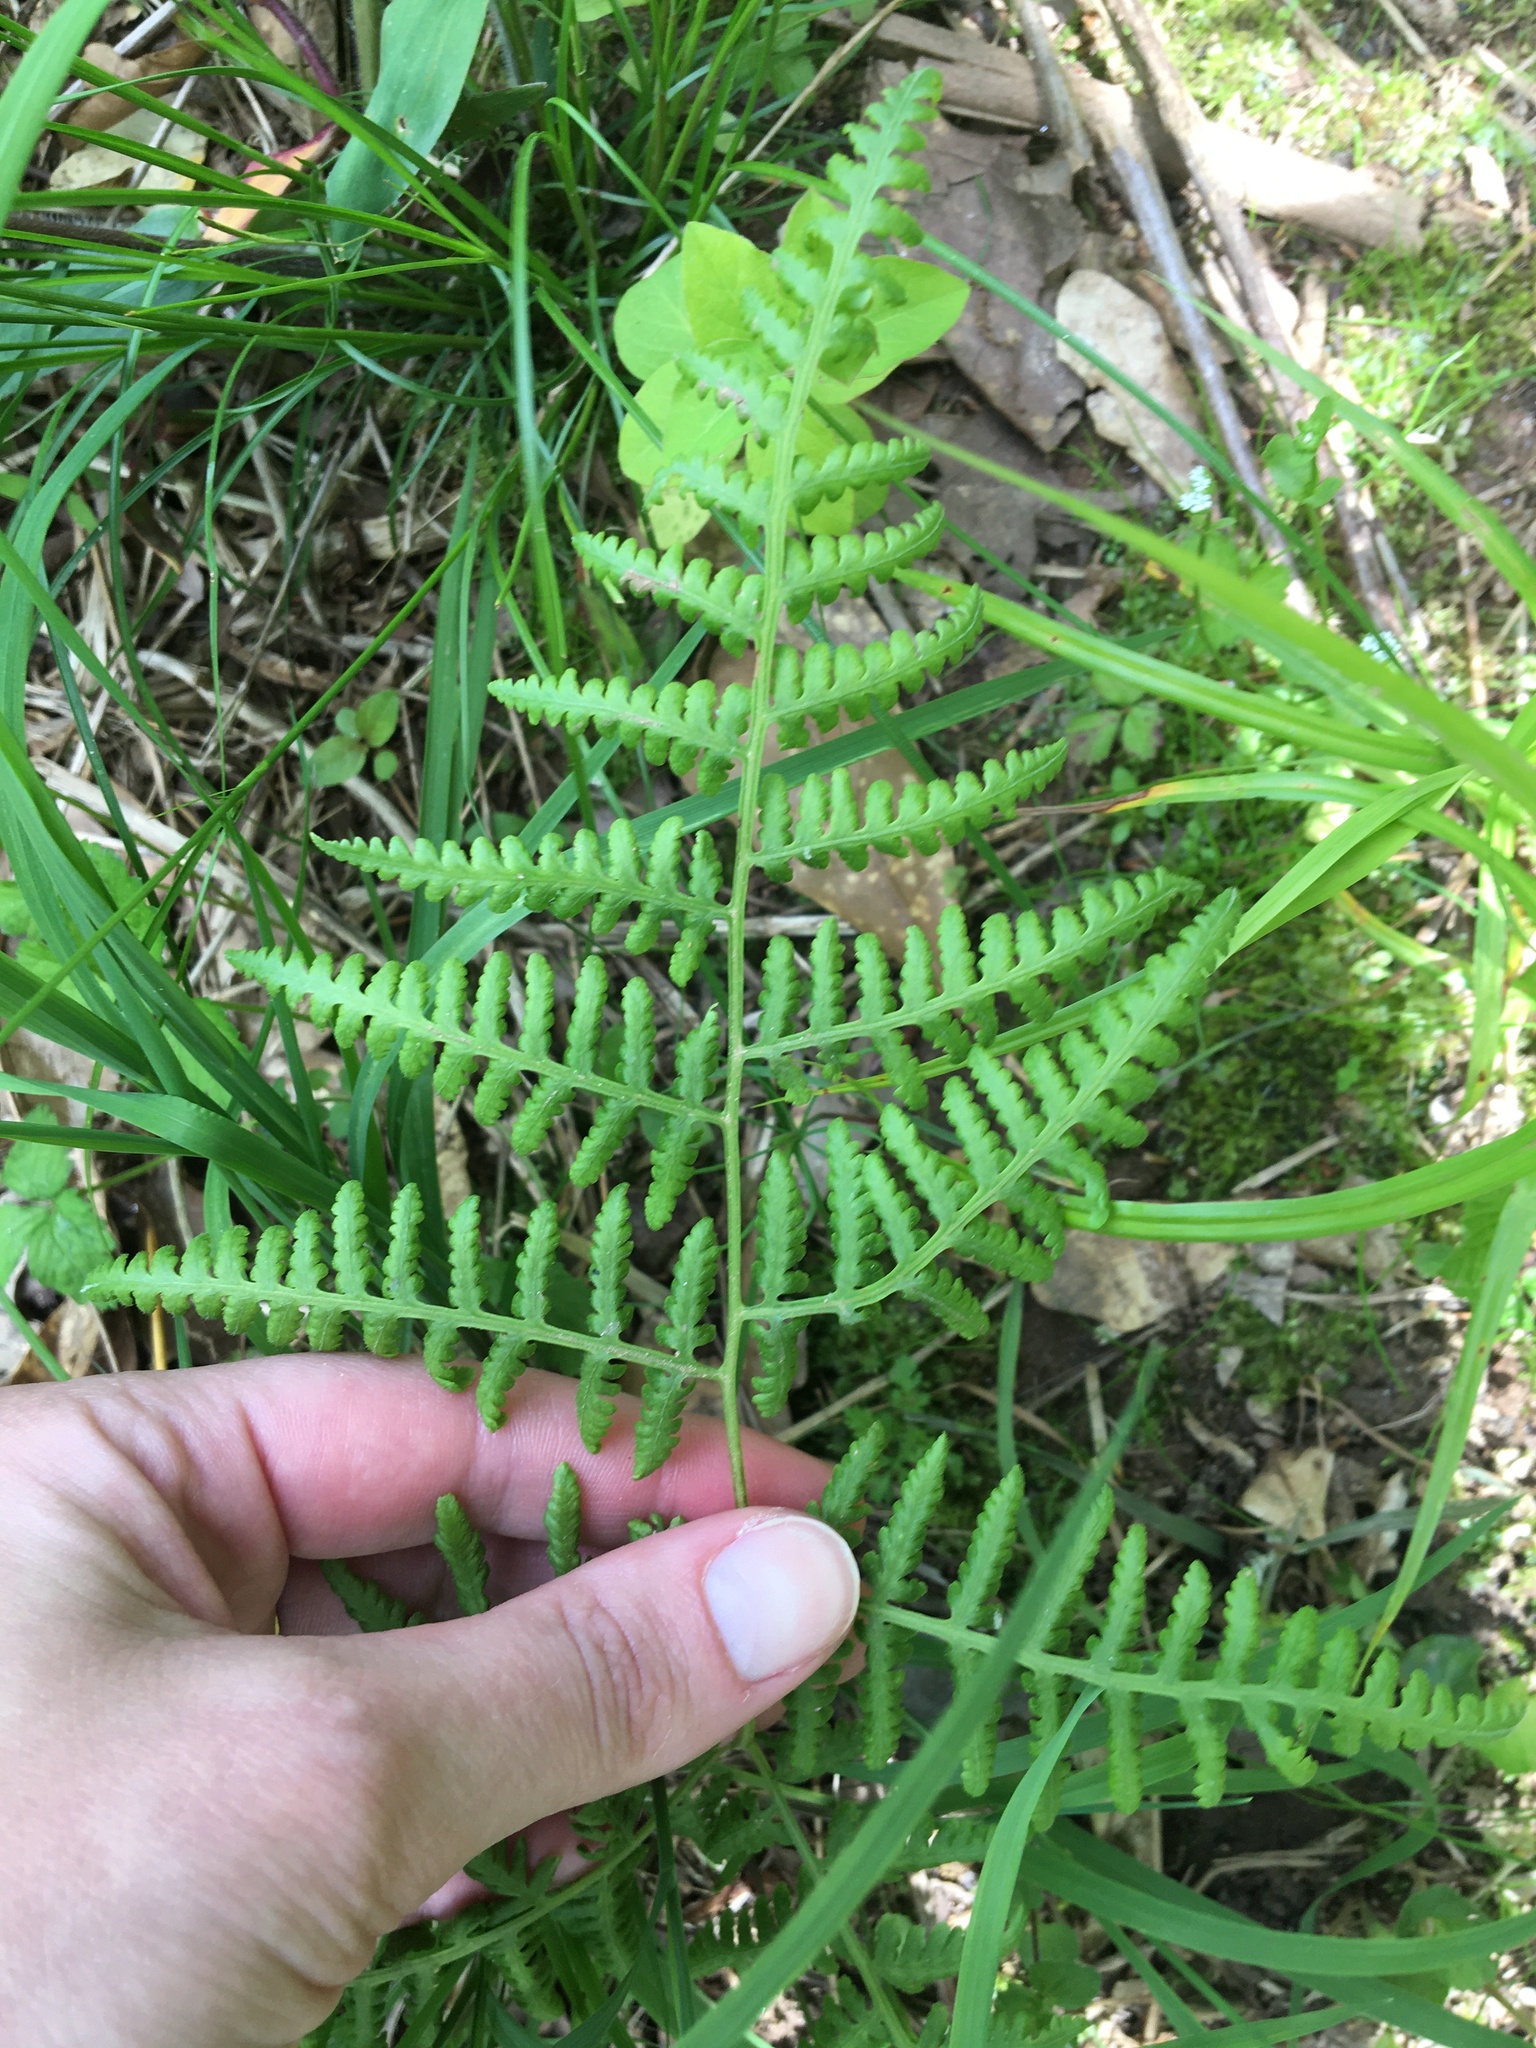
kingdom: Plantae
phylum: Tracheophyta
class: Polypodiopsida
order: Polypodiales
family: Thelypteridaceae
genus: Macrothelypteris
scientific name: Macrothelypteris torresiana
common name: Swordfern
